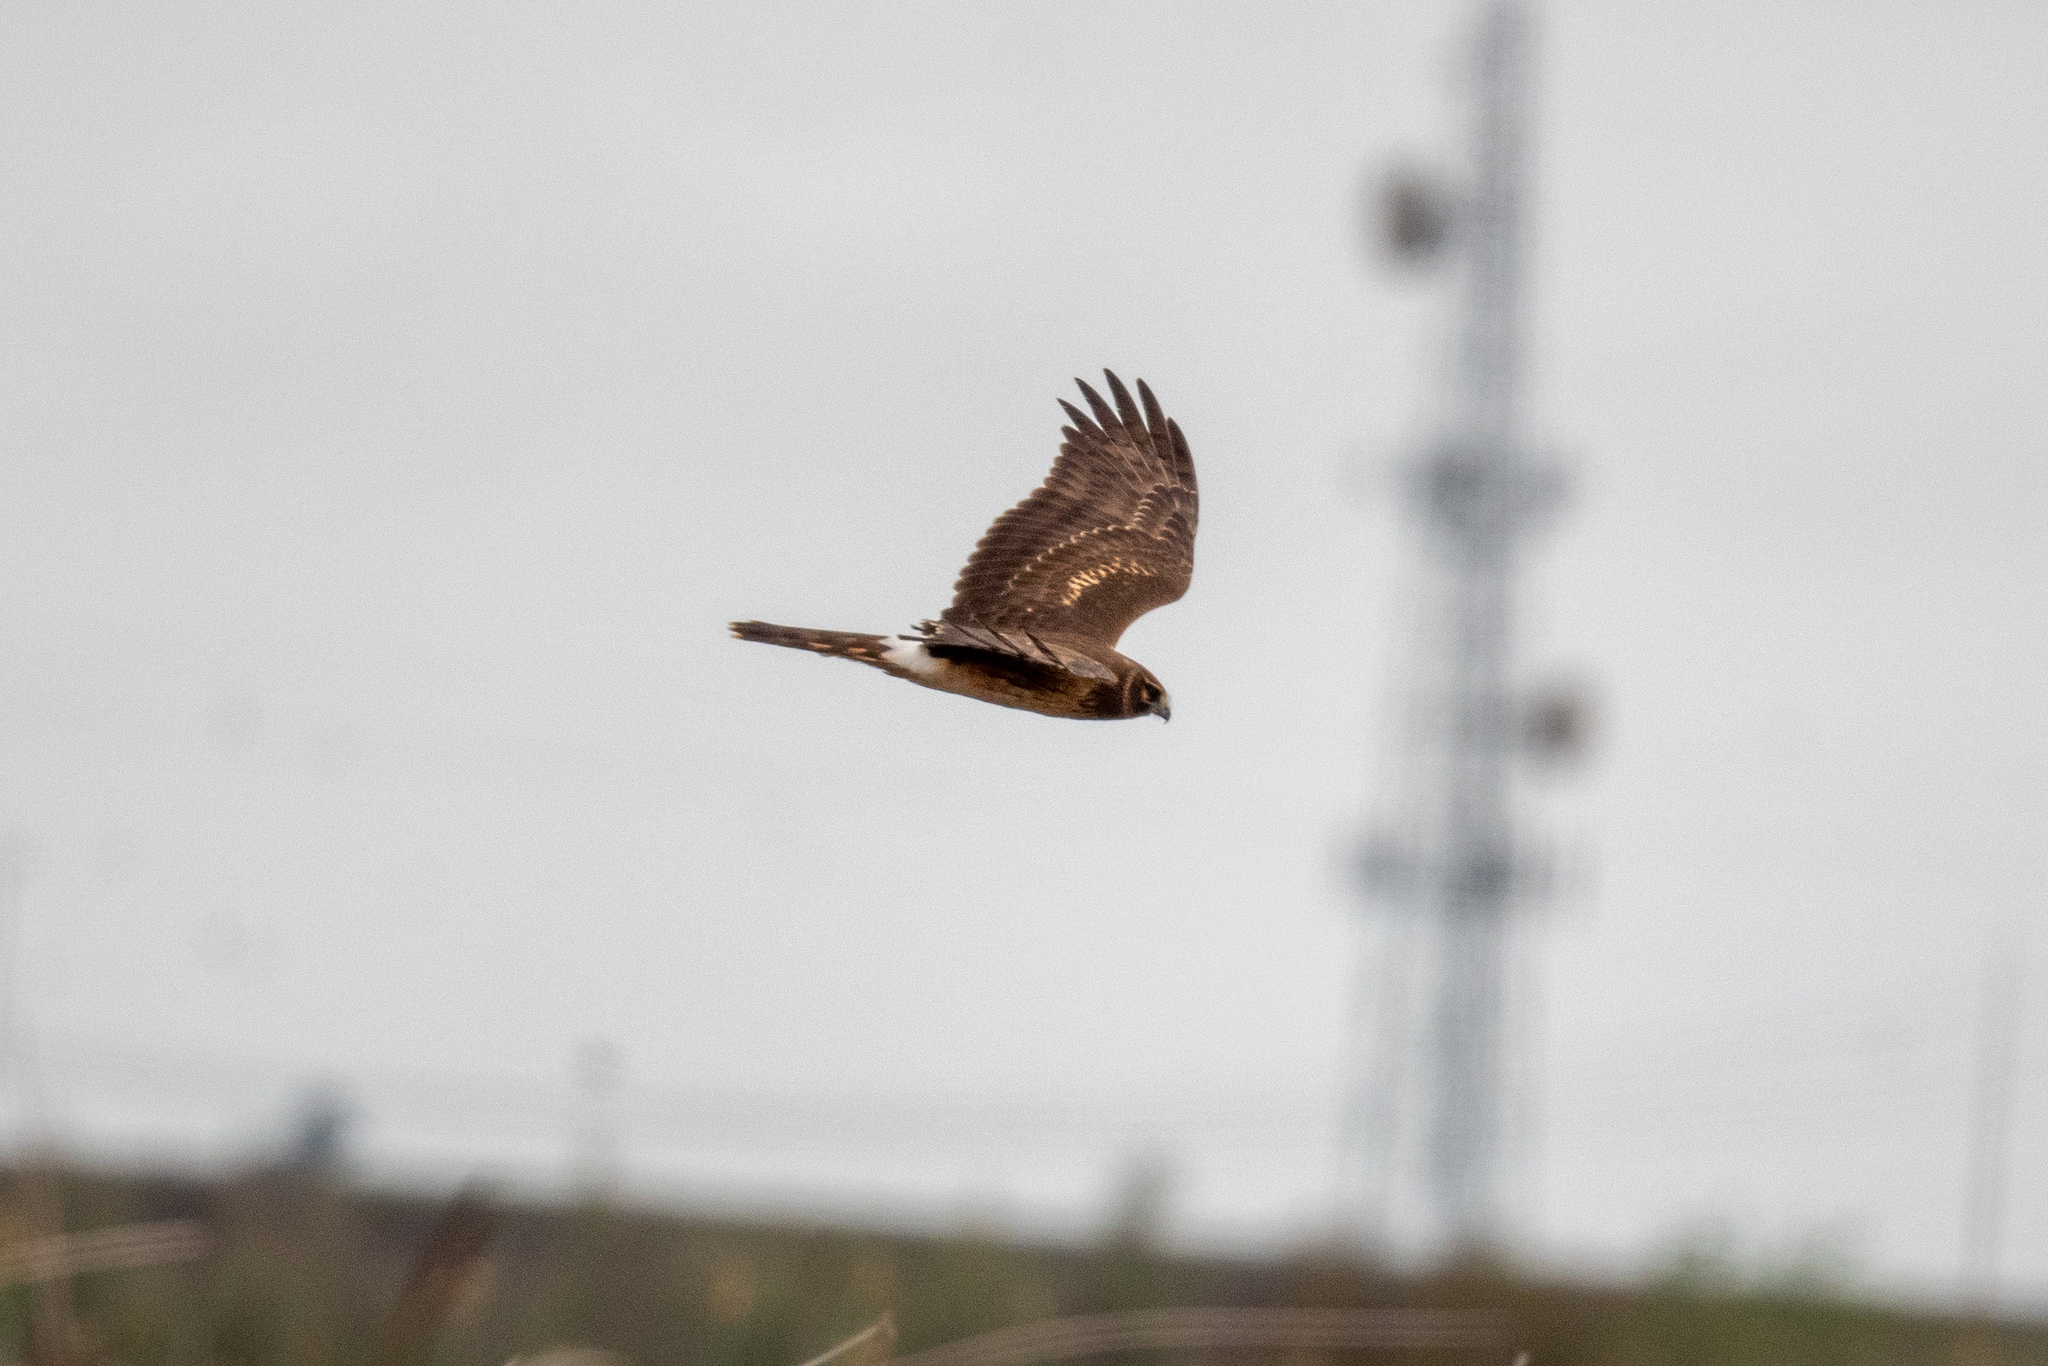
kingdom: Animalia
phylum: Chordata
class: Aves
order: Accipitriformes
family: Accipitridae
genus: Circus
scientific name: Circus cyaneus
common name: Hen harrier
